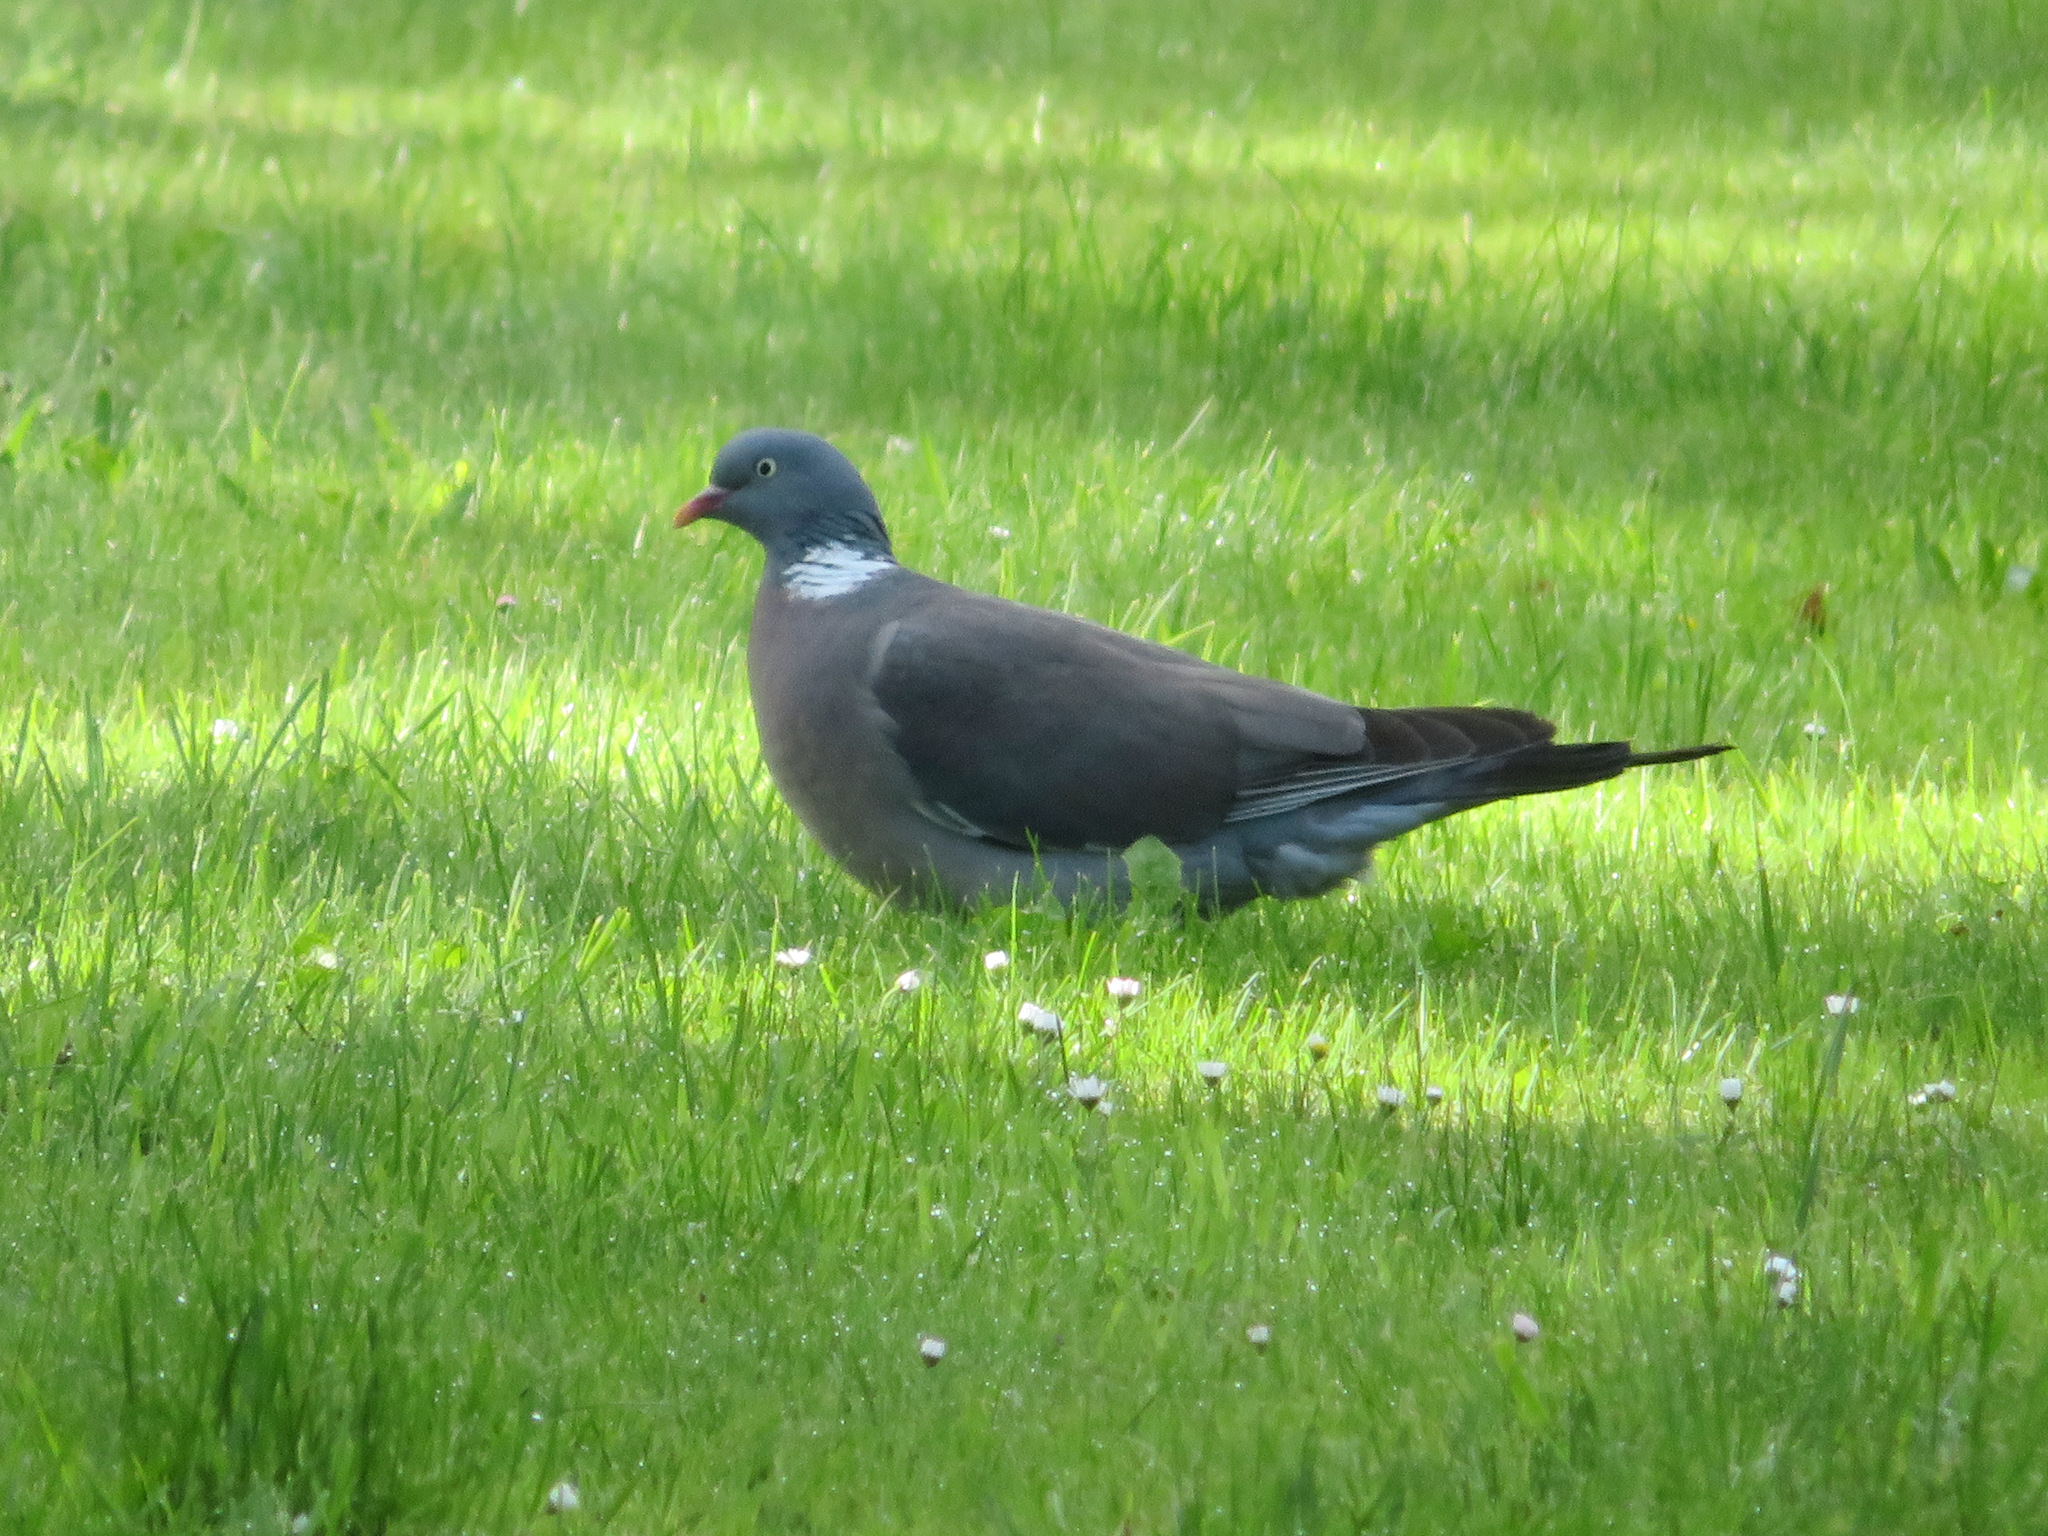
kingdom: Animalia
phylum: Chordata
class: Aves
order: Columbiformes
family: Columbidae
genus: Columba
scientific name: Columba palumbus
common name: Common wood pigeon
